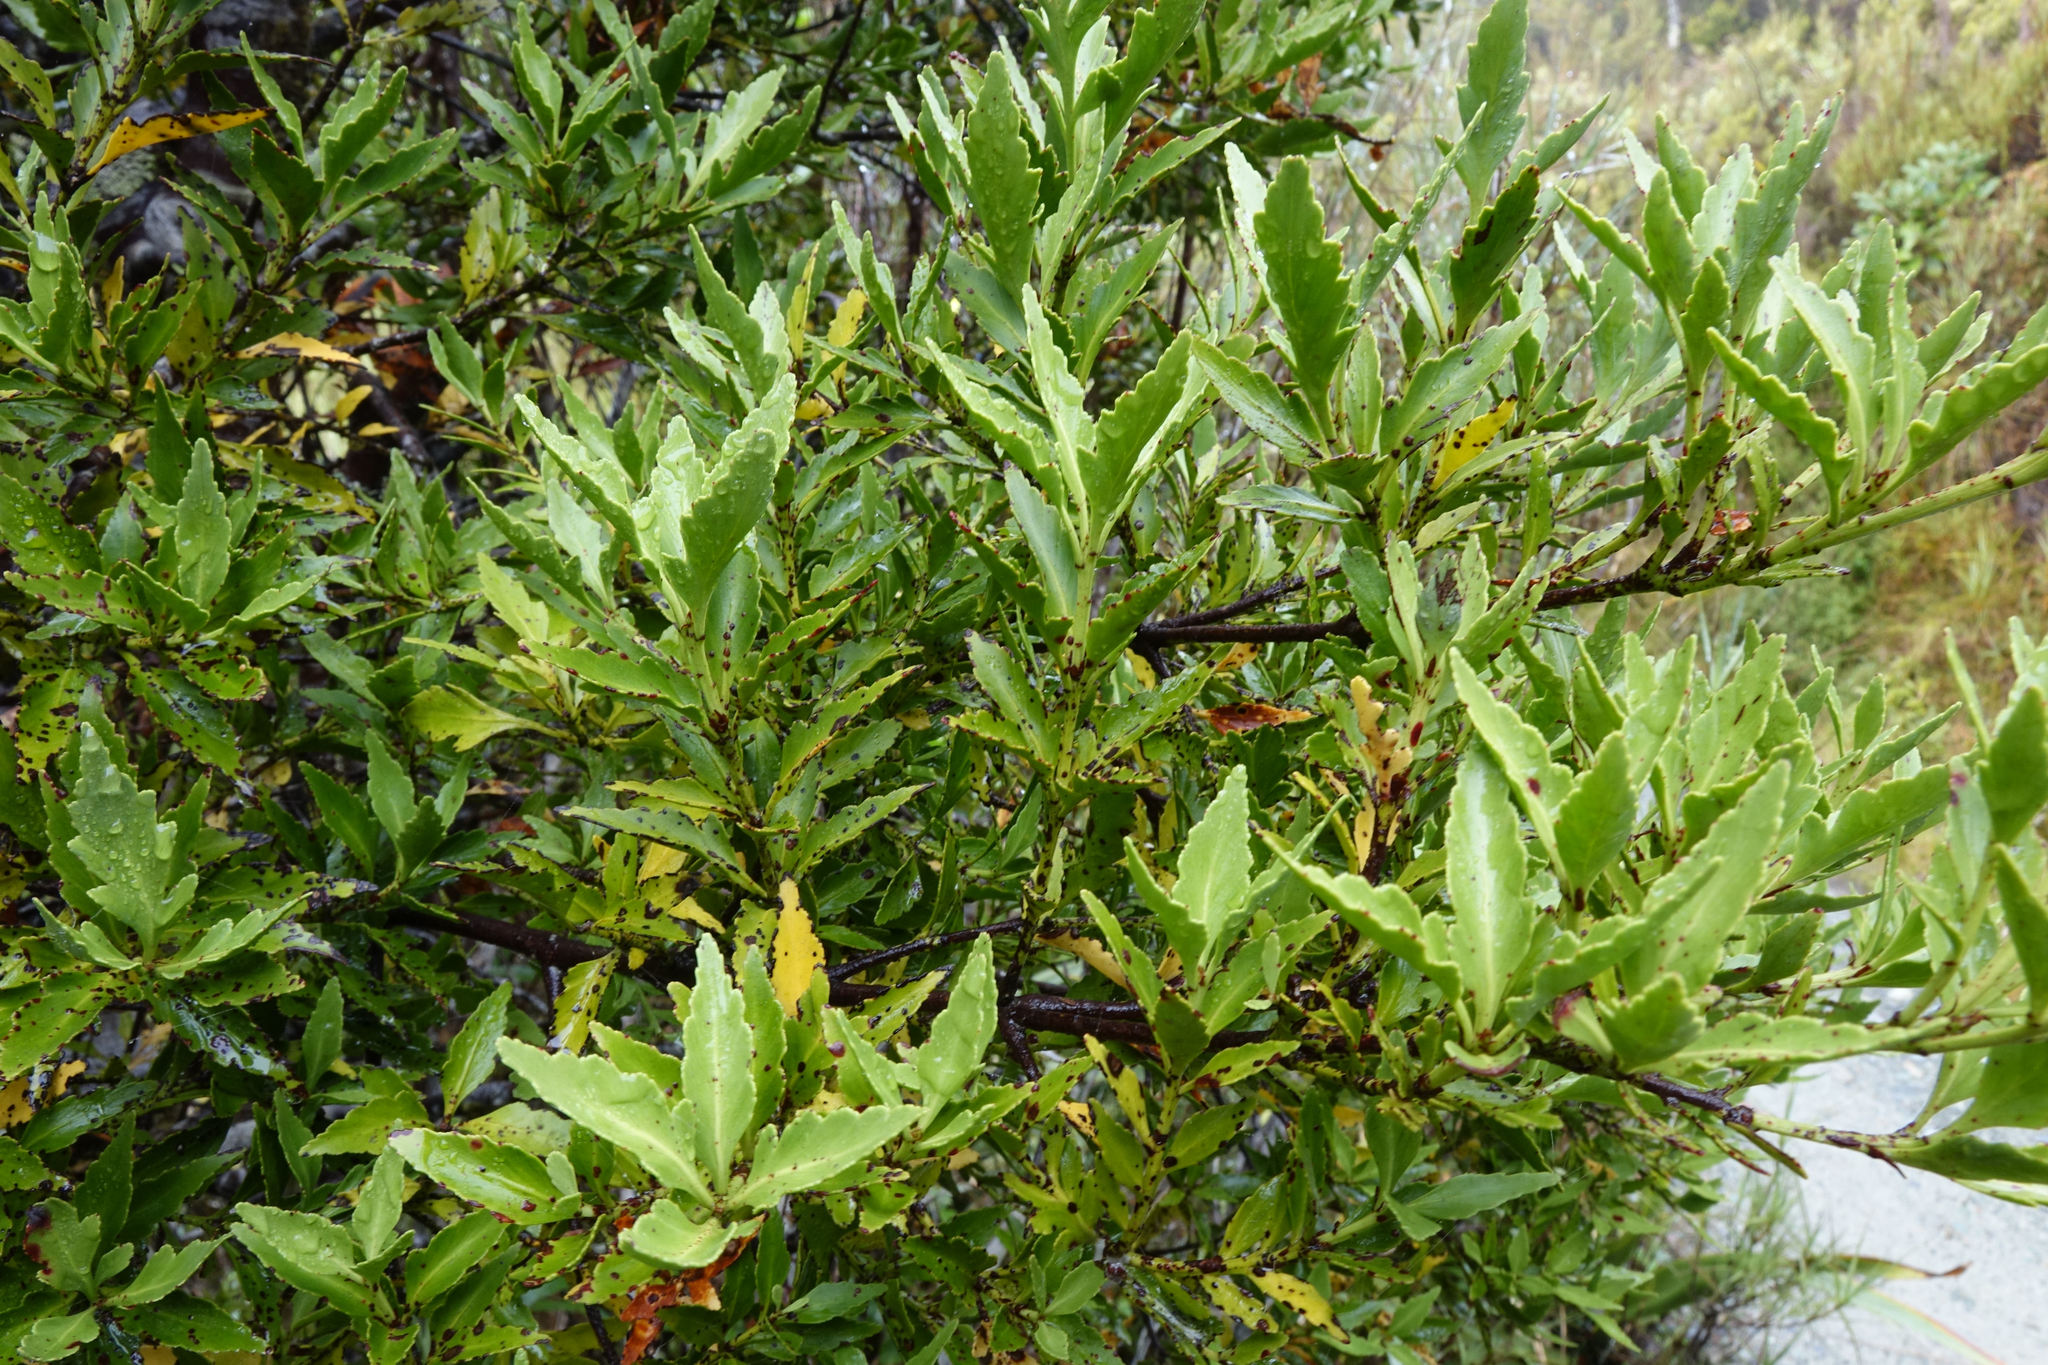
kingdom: Plantae
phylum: Tracheophyta
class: Pinopsida
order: Pinales
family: Phyllocladaceae
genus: Phyllocladus
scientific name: Phyllocladus trichomanoides
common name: Celery pine
